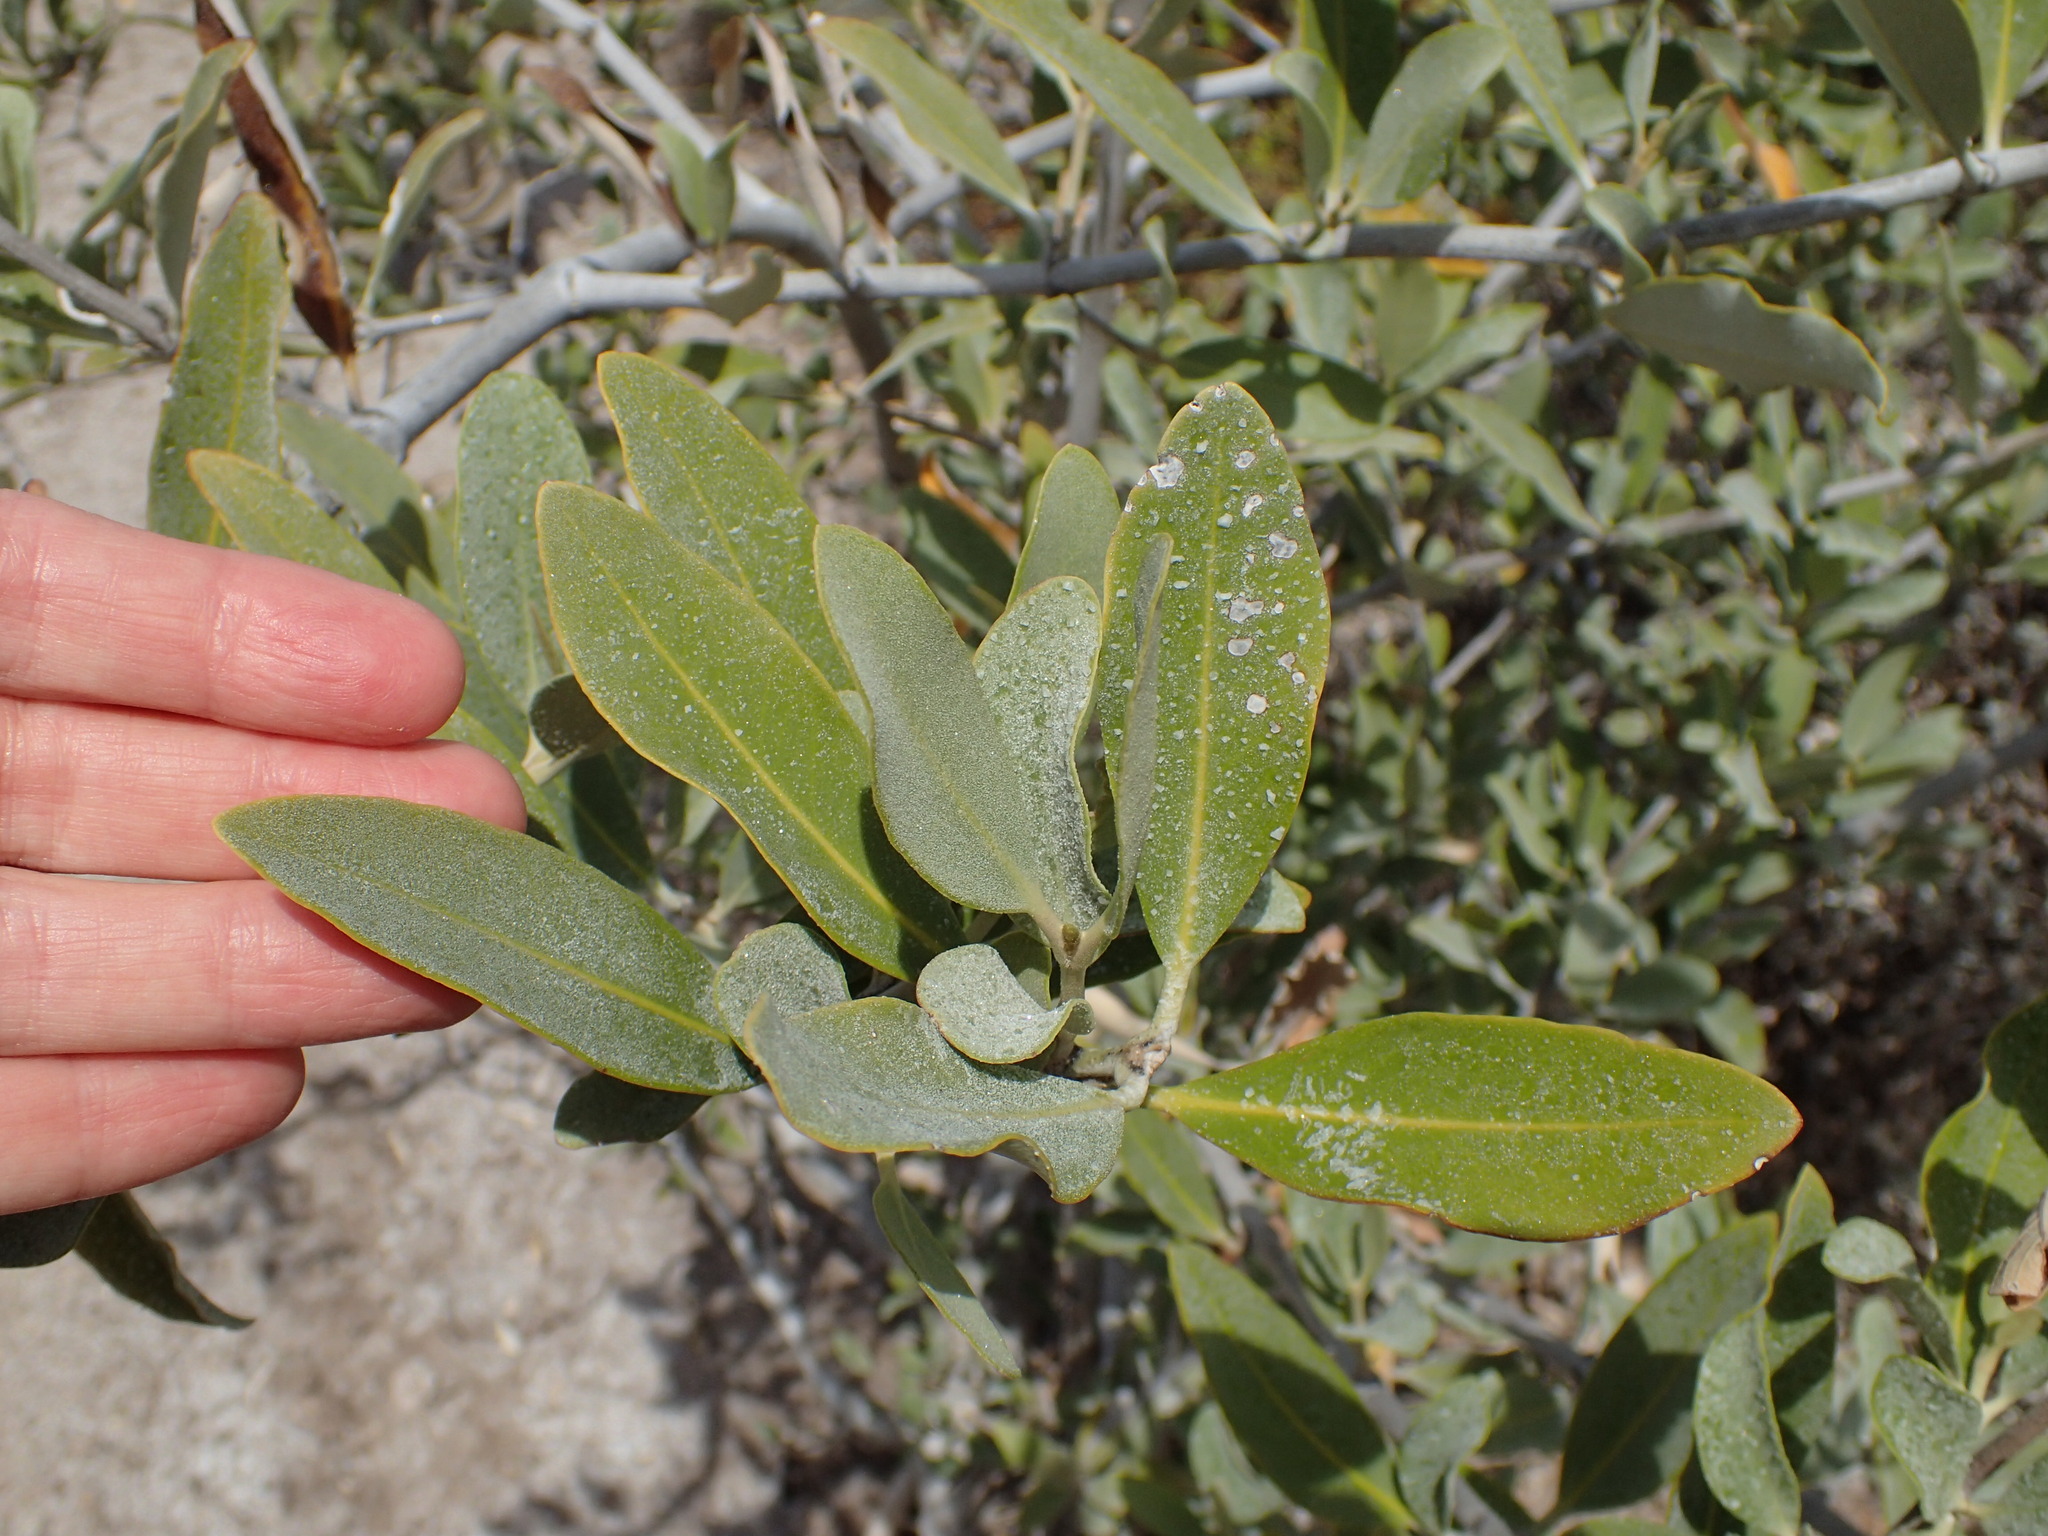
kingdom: Plantae
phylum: Tracheophyta
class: Magnoliopsida
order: Lamiales
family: Acanthaceae
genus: Avicennia
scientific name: Avicennia germinans
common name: Black mangrove
